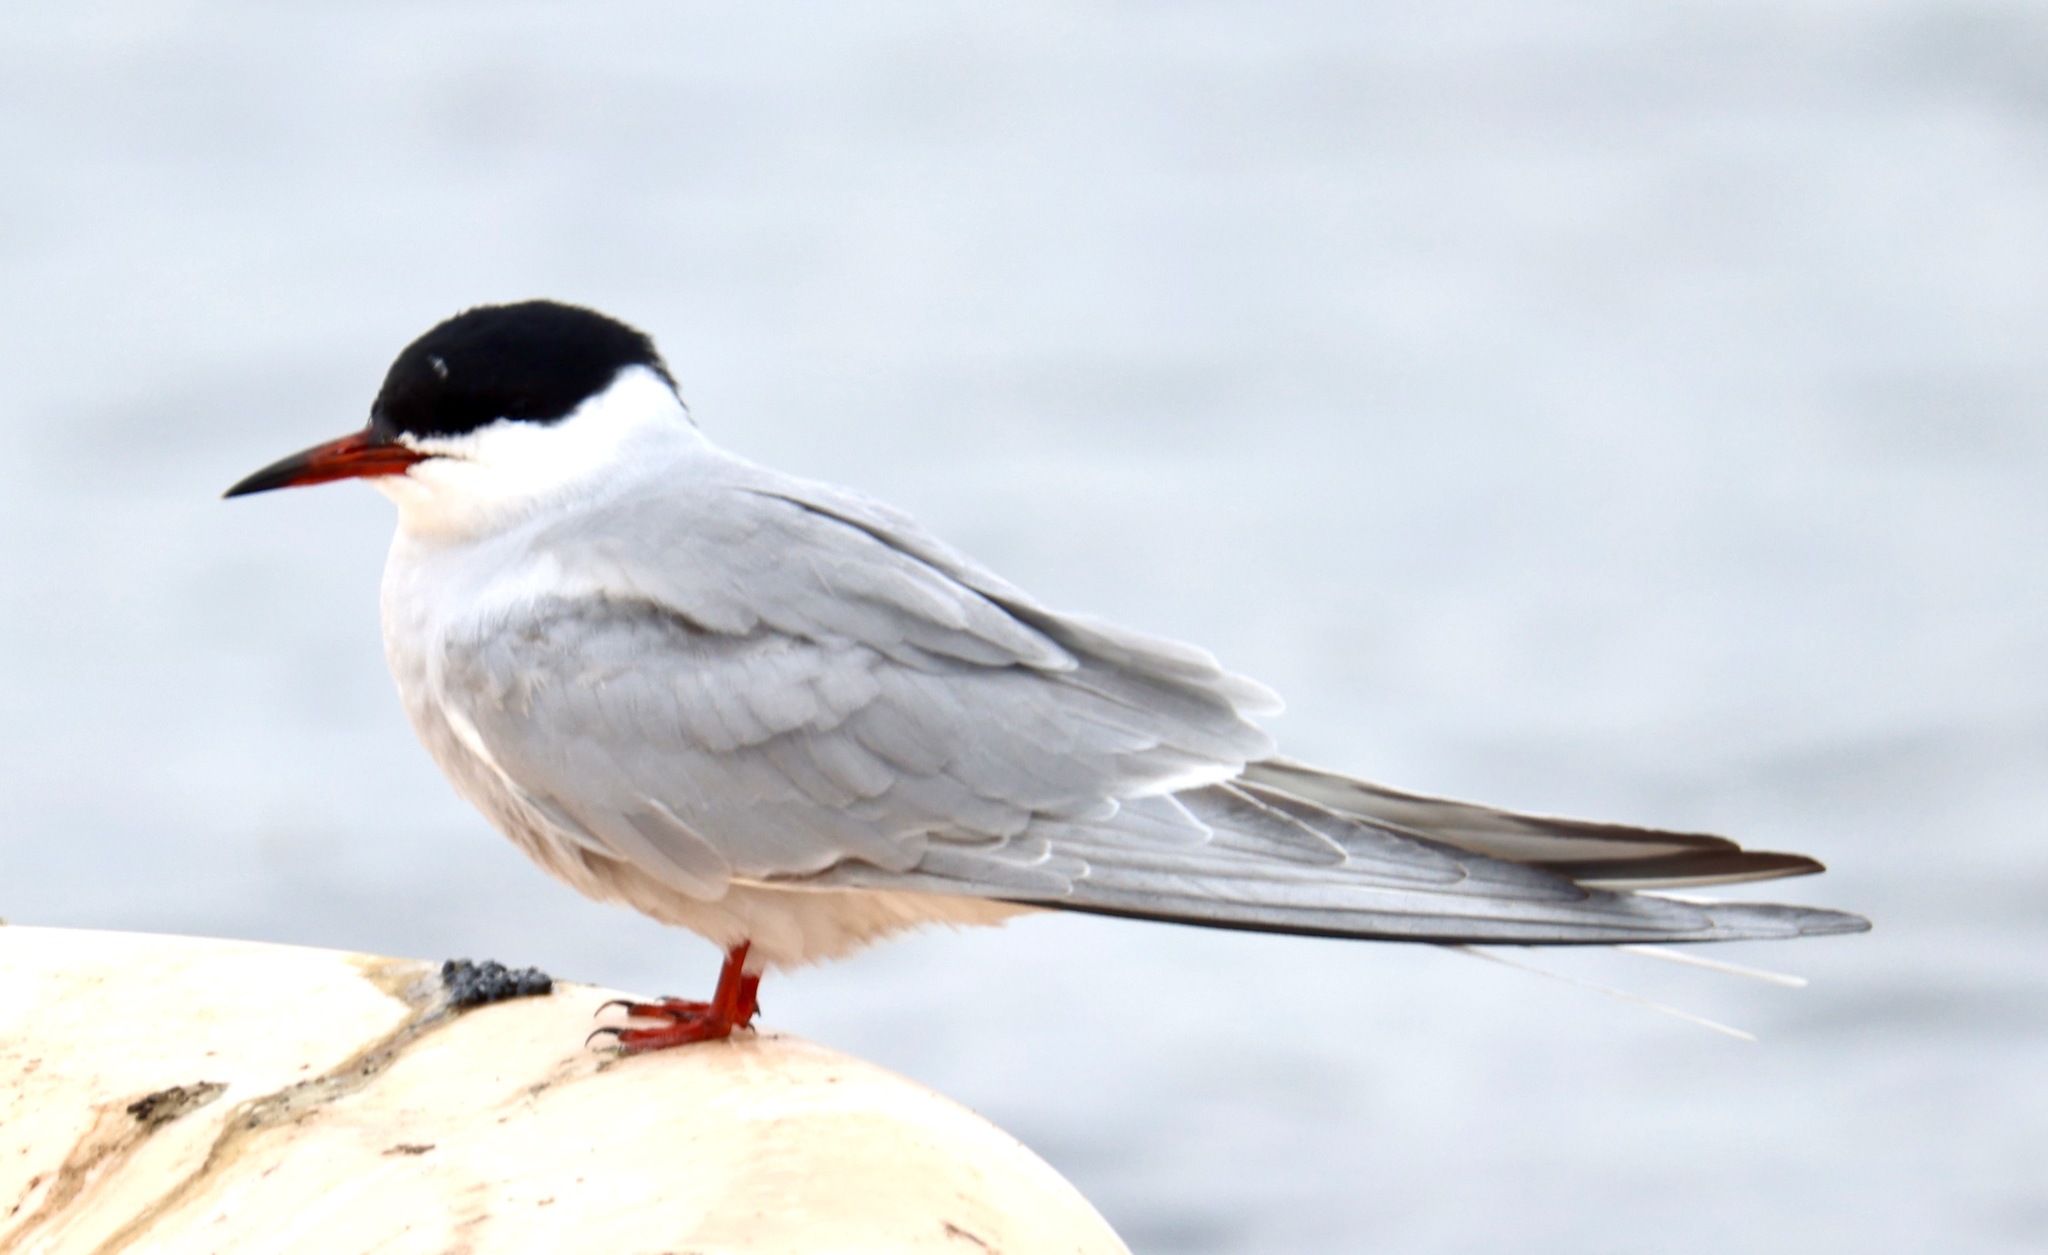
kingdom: Animalia
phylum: Chordata
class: Aves
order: Charadriiformes
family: Laridae
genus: Sterna
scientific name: Sterna hirundo
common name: Common tern
